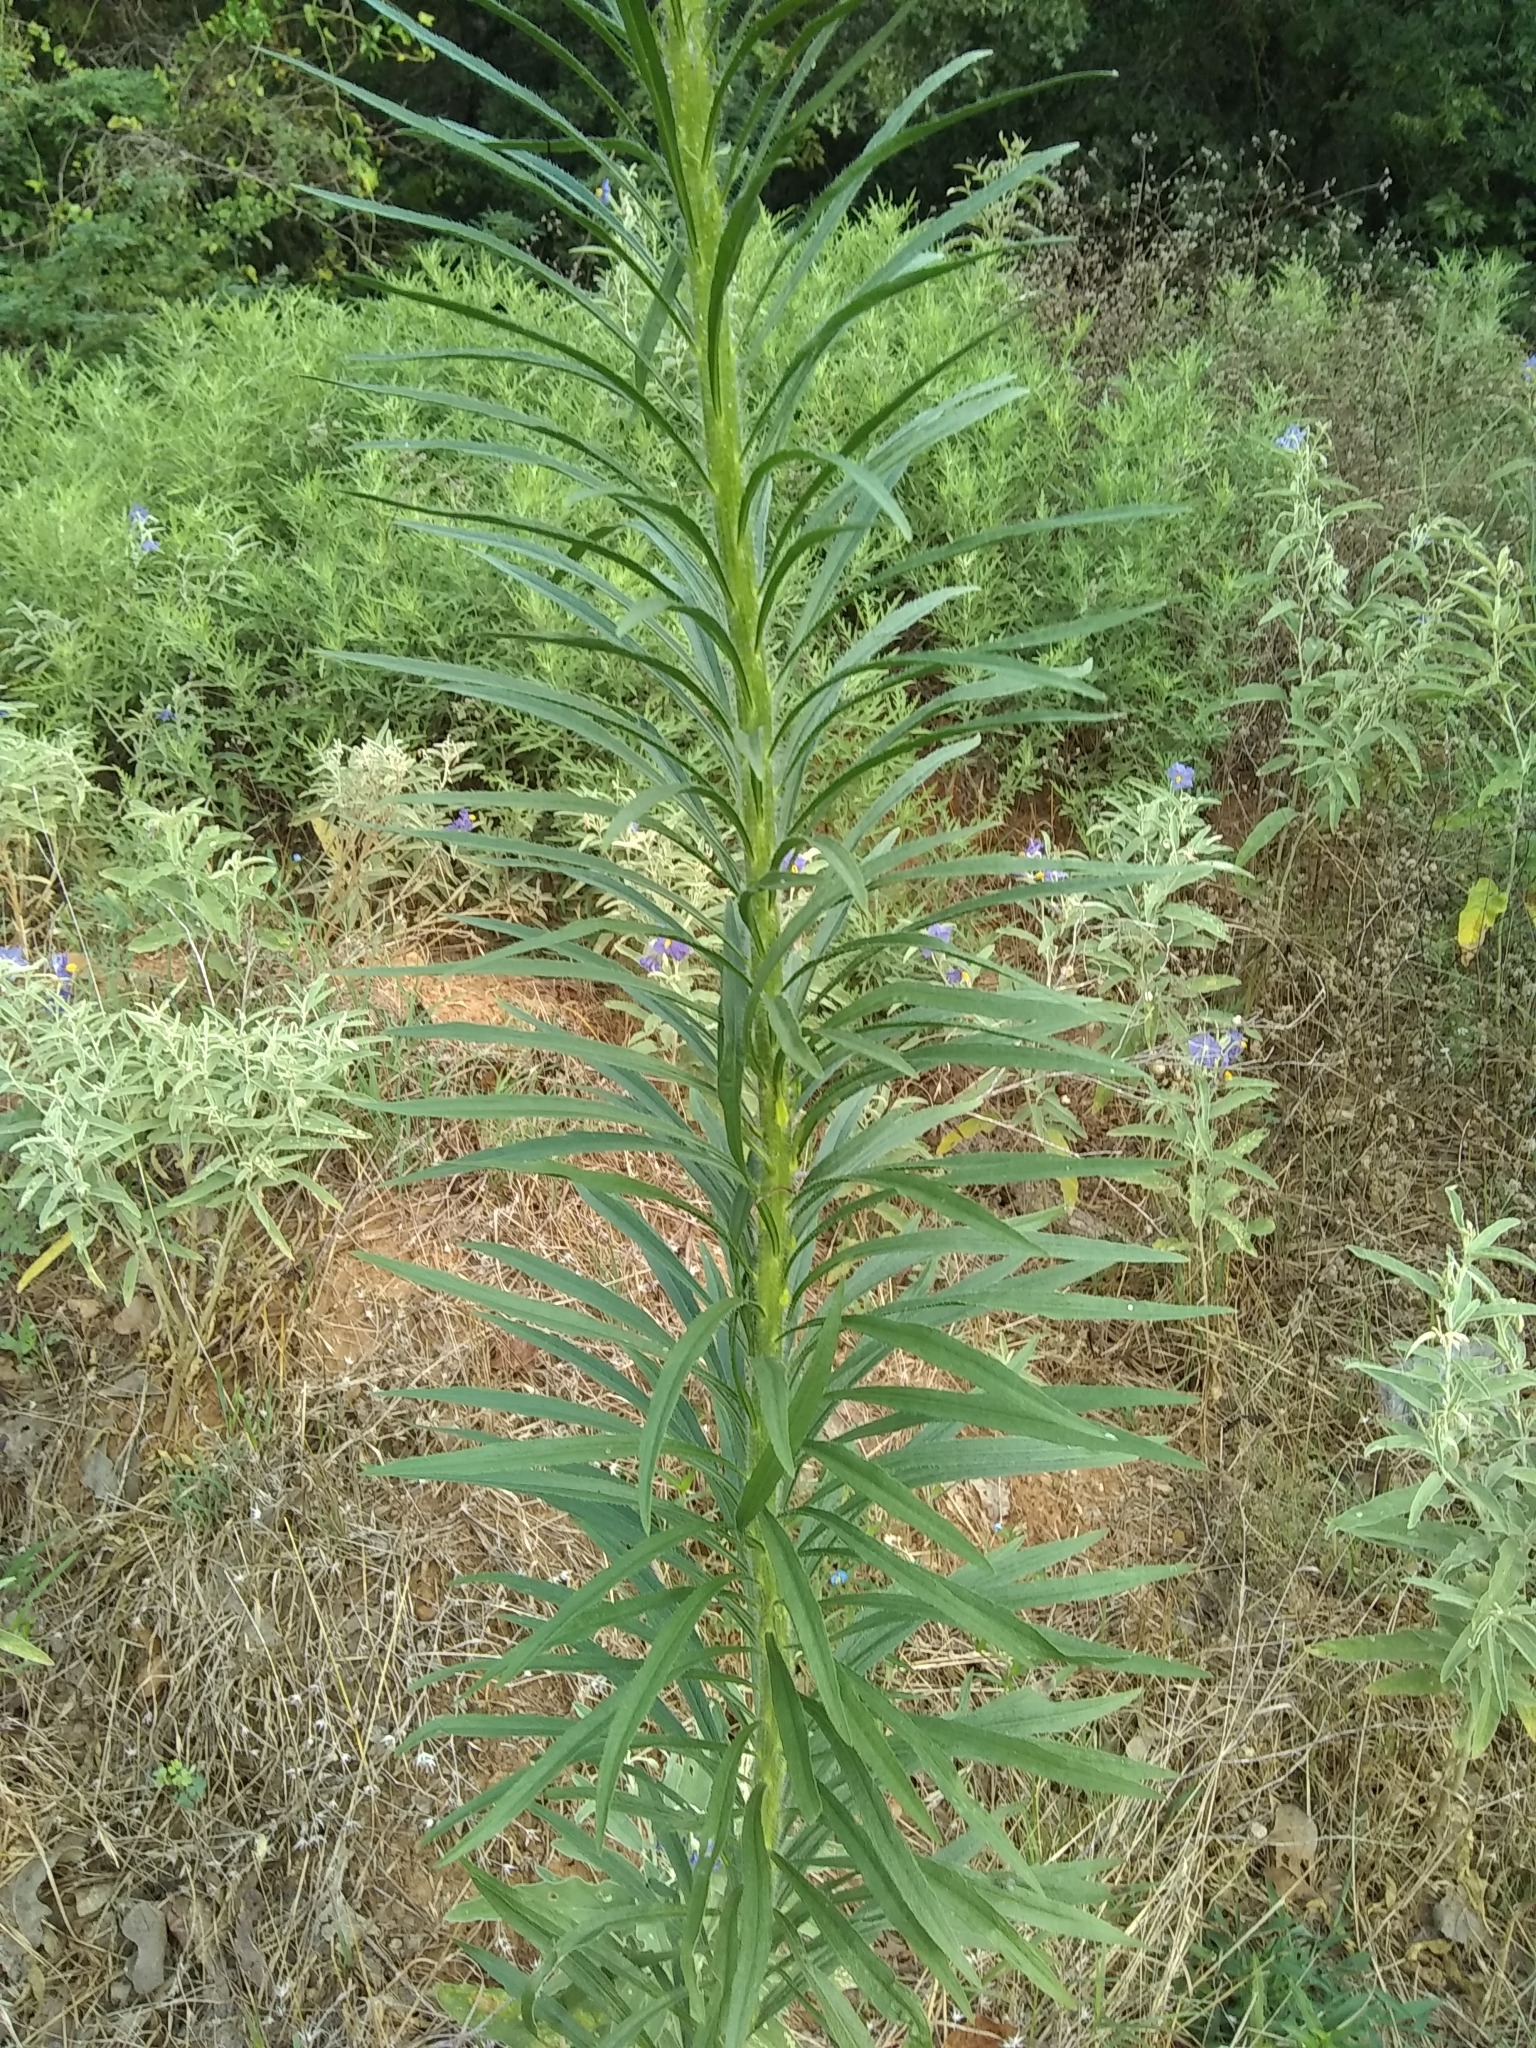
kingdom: Plantae
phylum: Tracheophyta
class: Magnoliopsida
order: Asterales
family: Asteraceae
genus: Erigeron
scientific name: Erigeron canadensis
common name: Canadian fleabane
